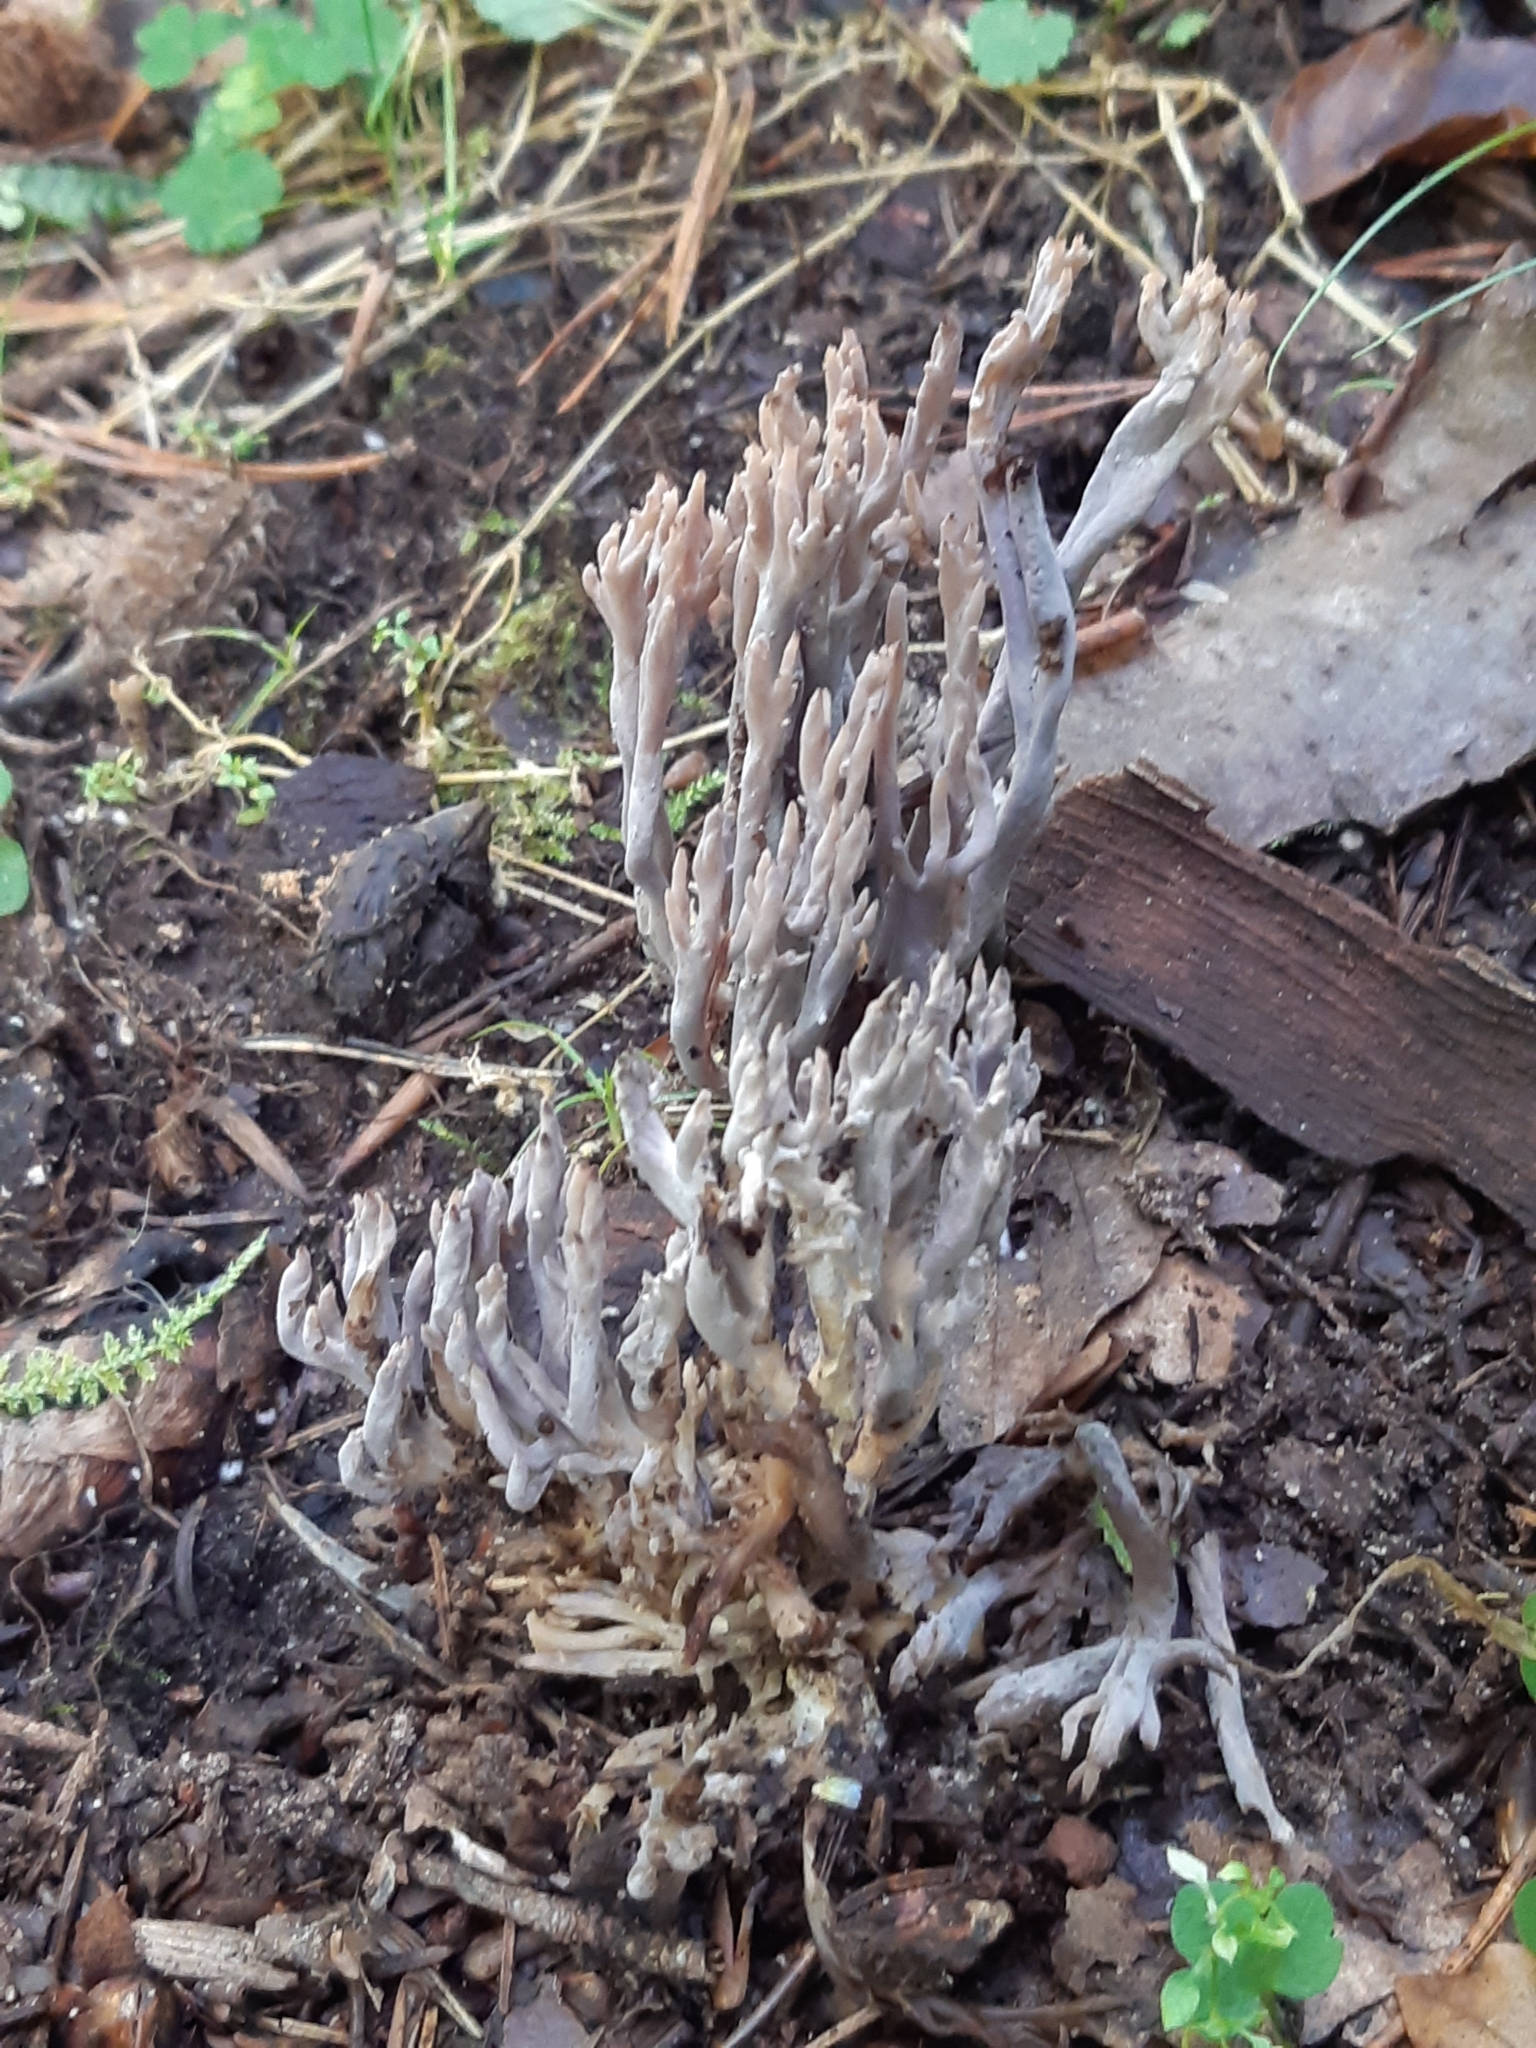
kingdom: Fungi
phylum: Basidiomycota
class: Agaricomycetes
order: Cantharellales
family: Hydnaceae
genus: Clavulina
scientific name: Clavulina cinerea
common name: Grey coral
